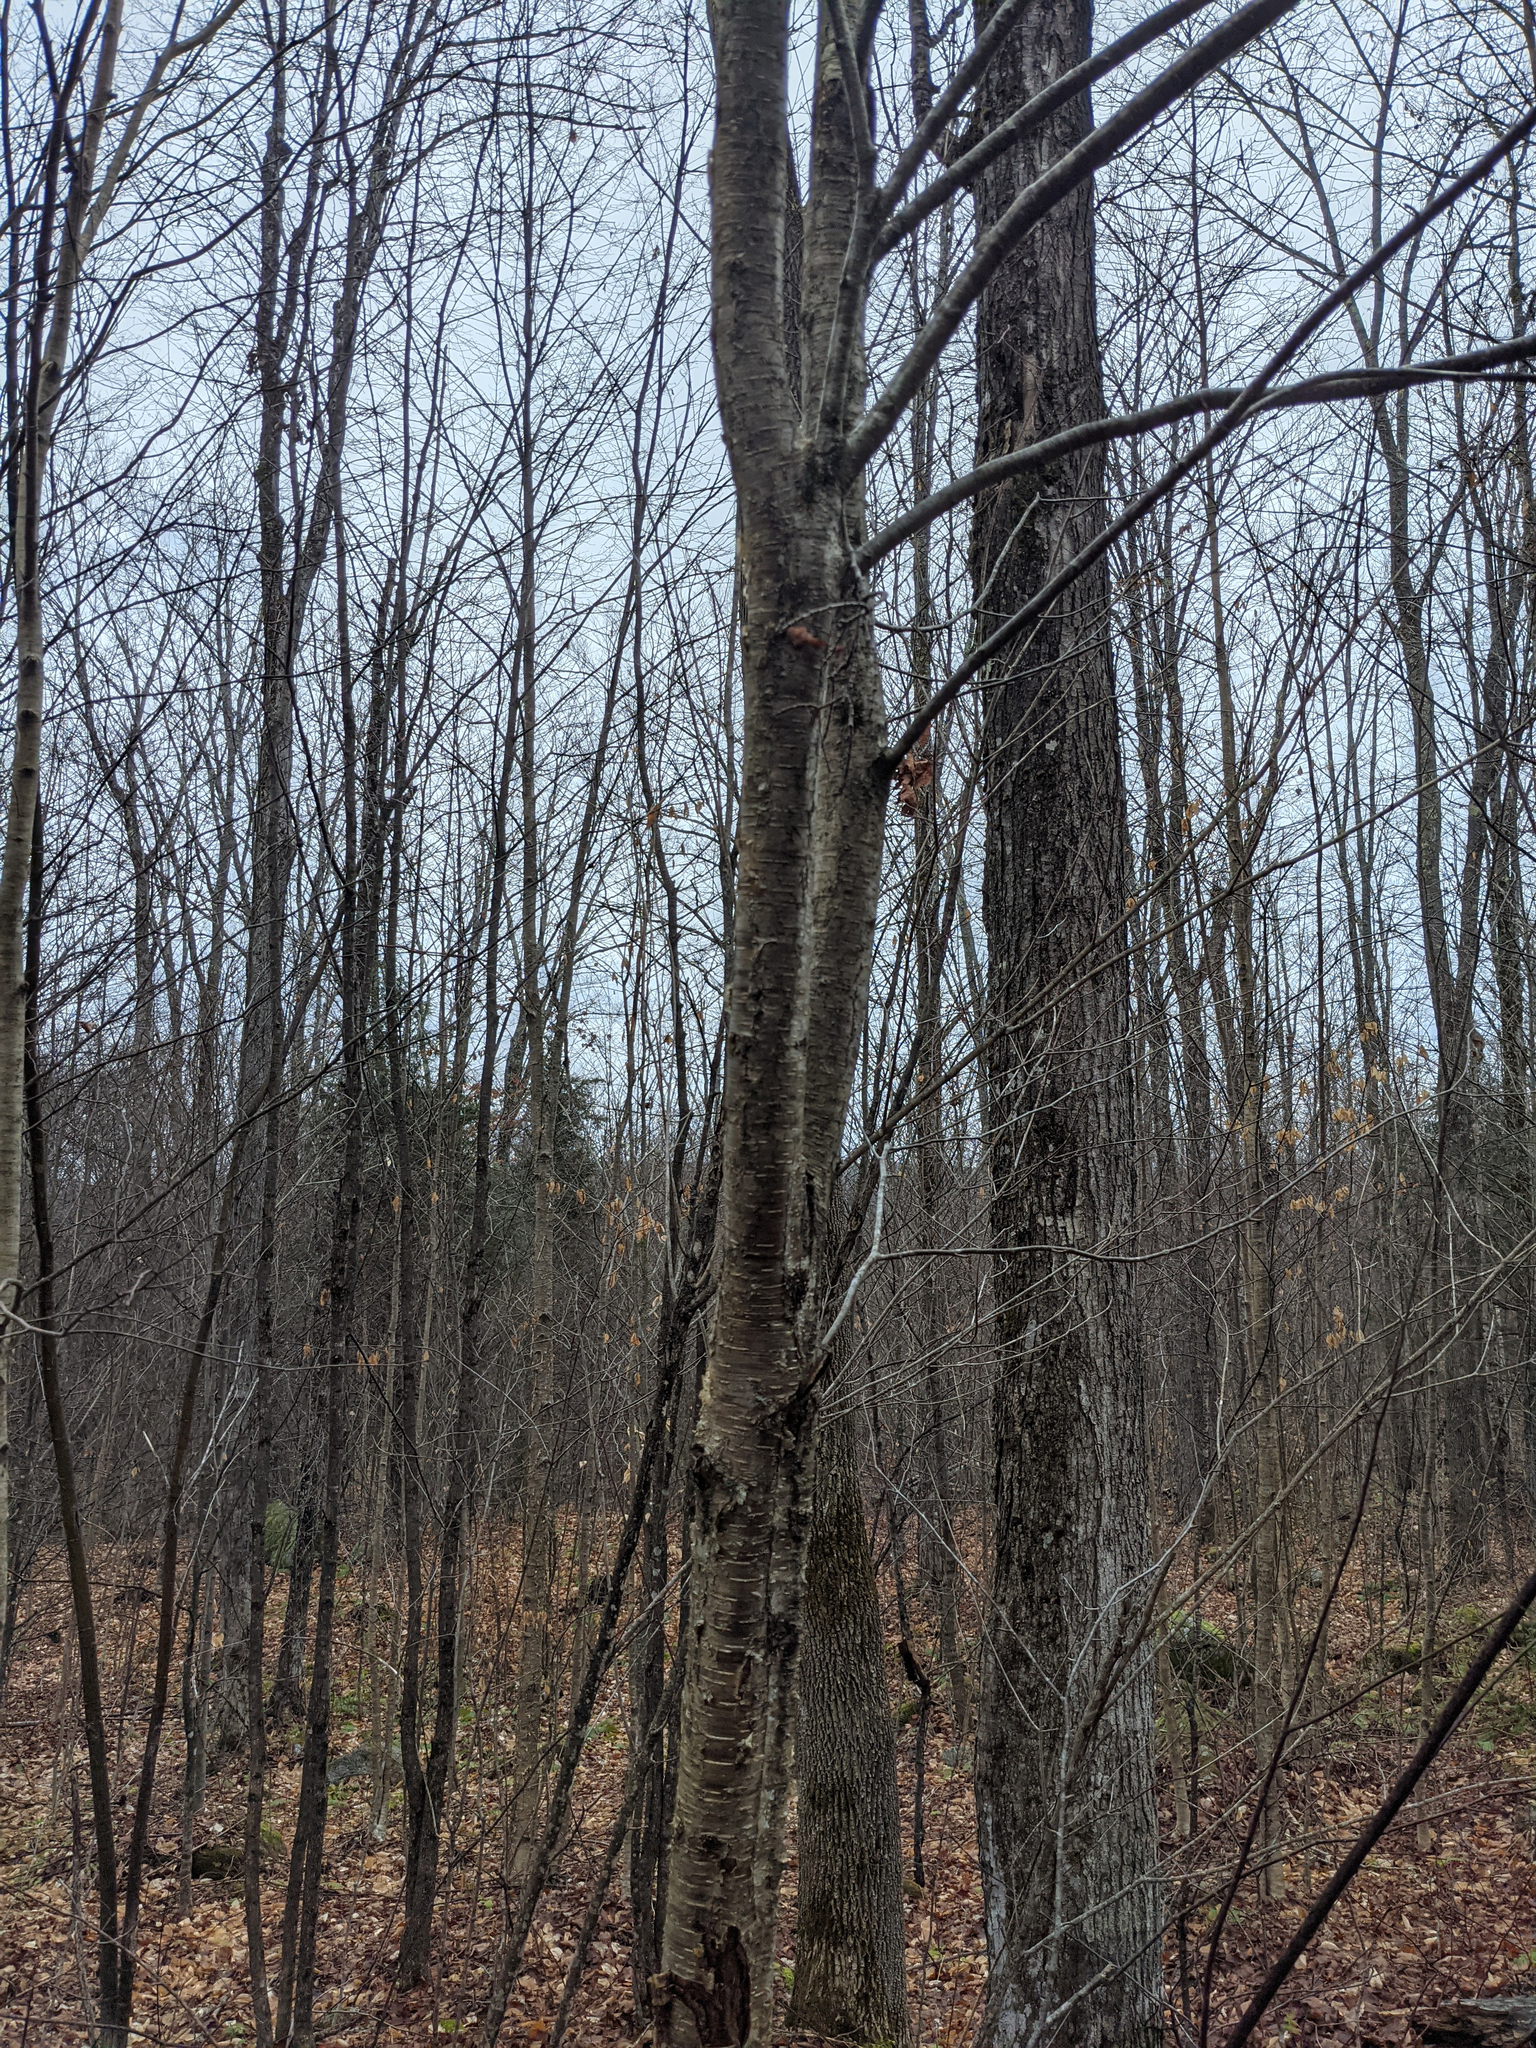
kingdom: Plantae
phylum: Tracheophyta
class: Magnoliopsida
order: Fagales
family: Betulaceae
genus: Betula
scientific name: Betula alleghaniensis
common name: Yellow birch
